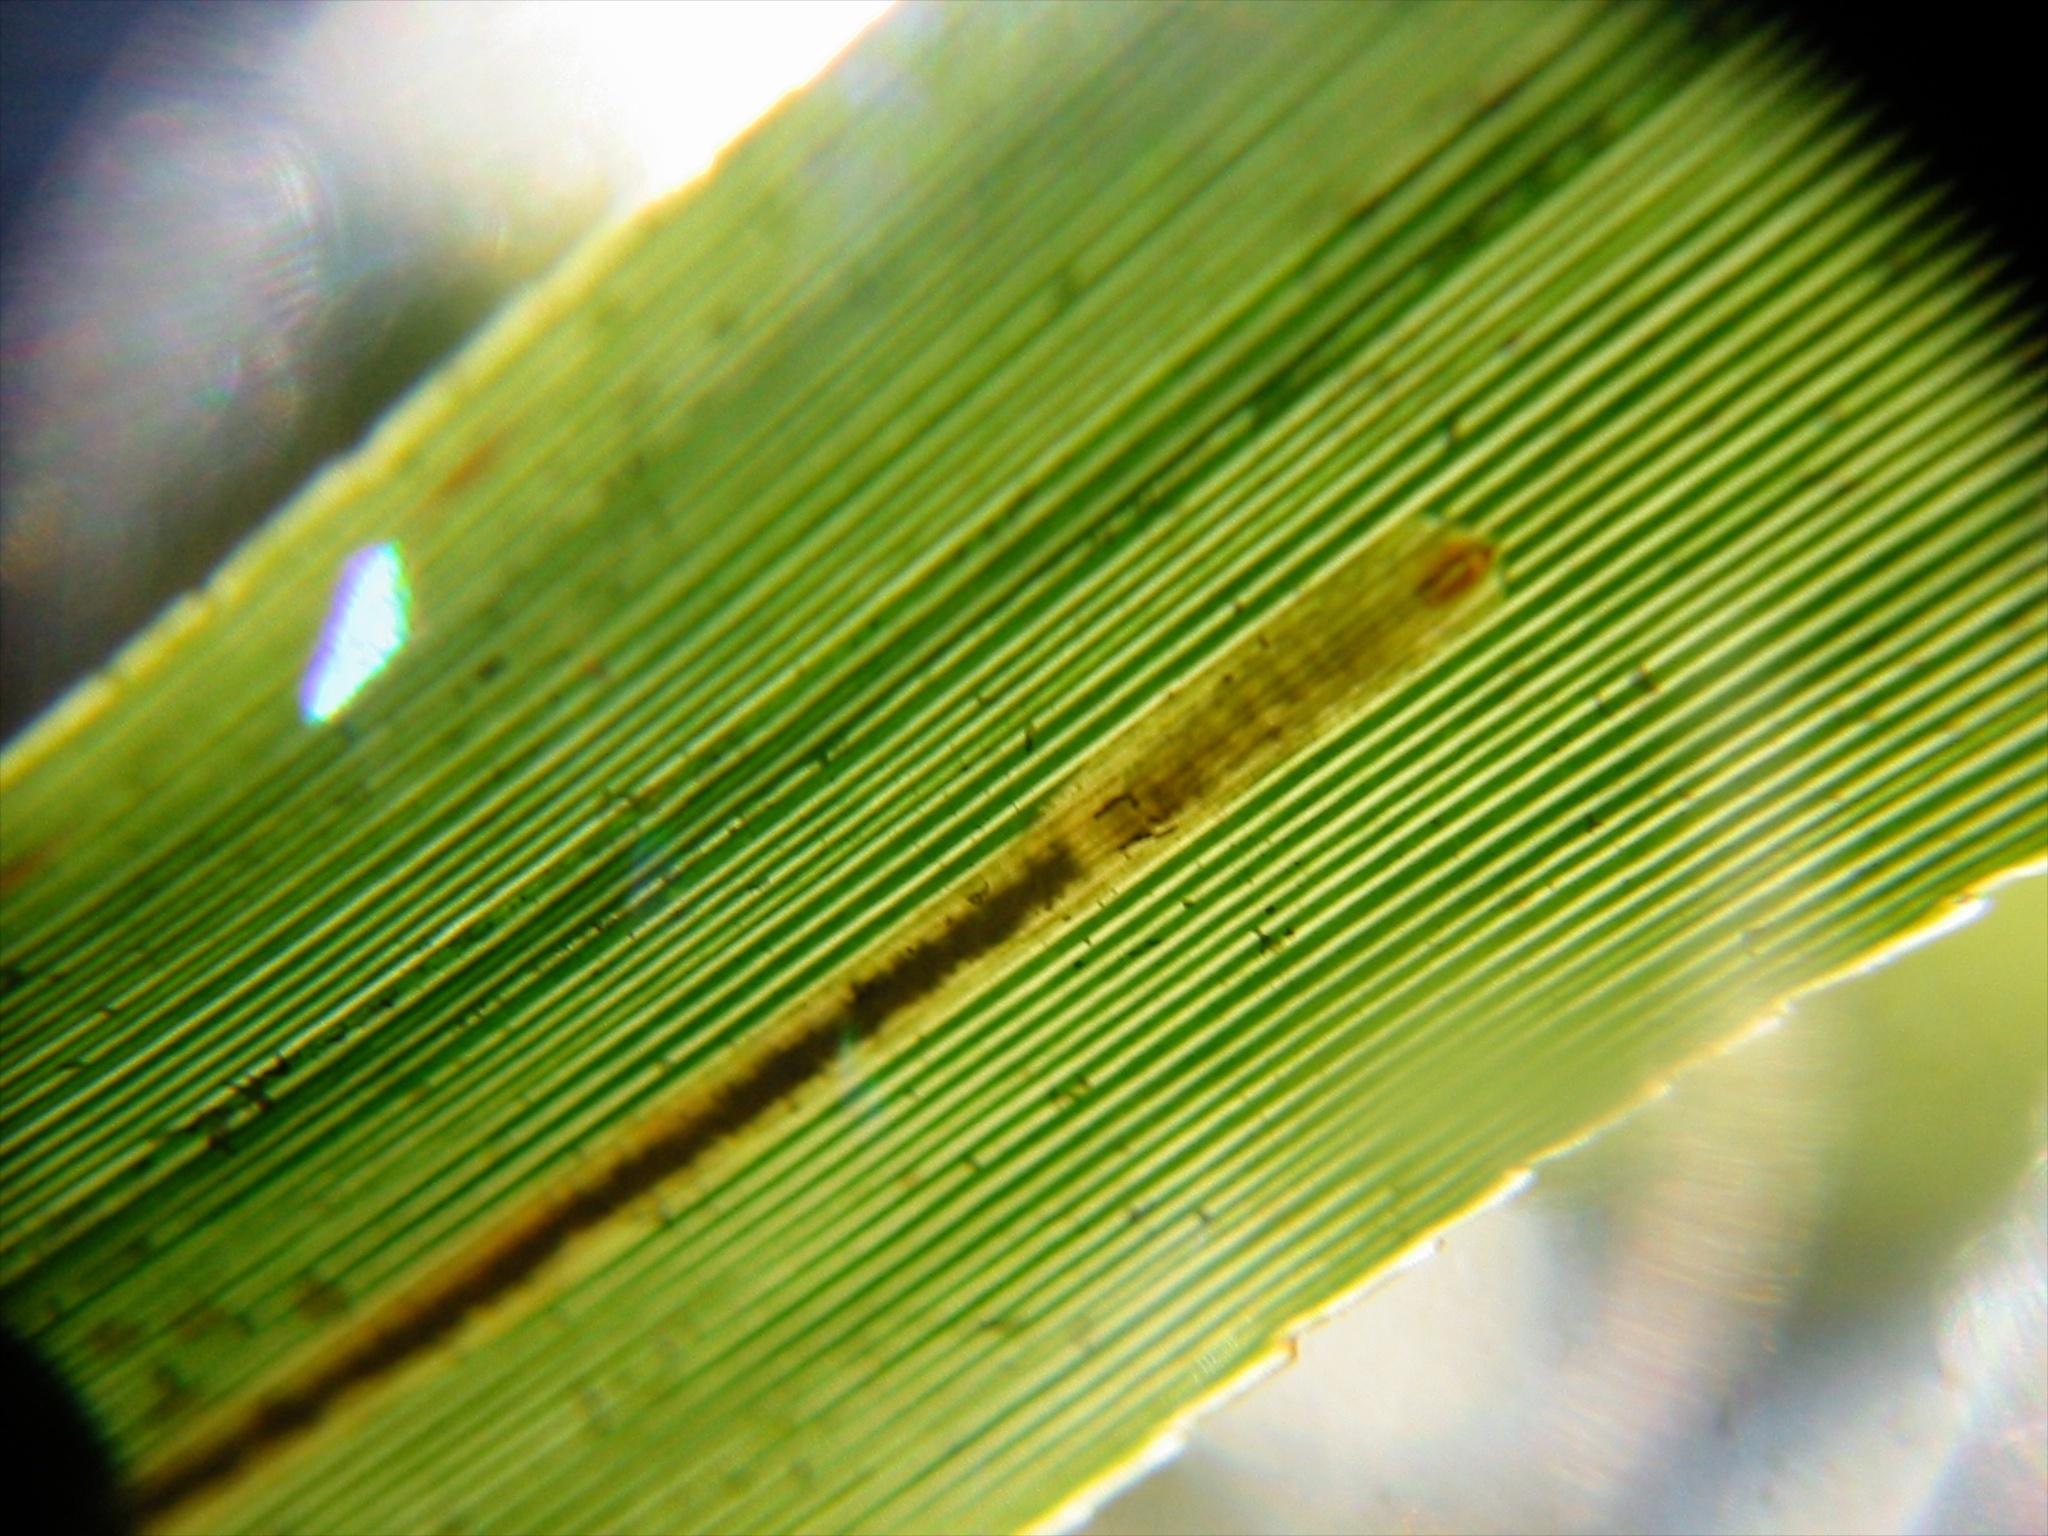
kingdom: Animalia
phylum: Arthropoda
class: Insecta
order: Lepidoptera
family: Nepticulidae
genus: Stigmella
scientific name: Stigmella progonopis
